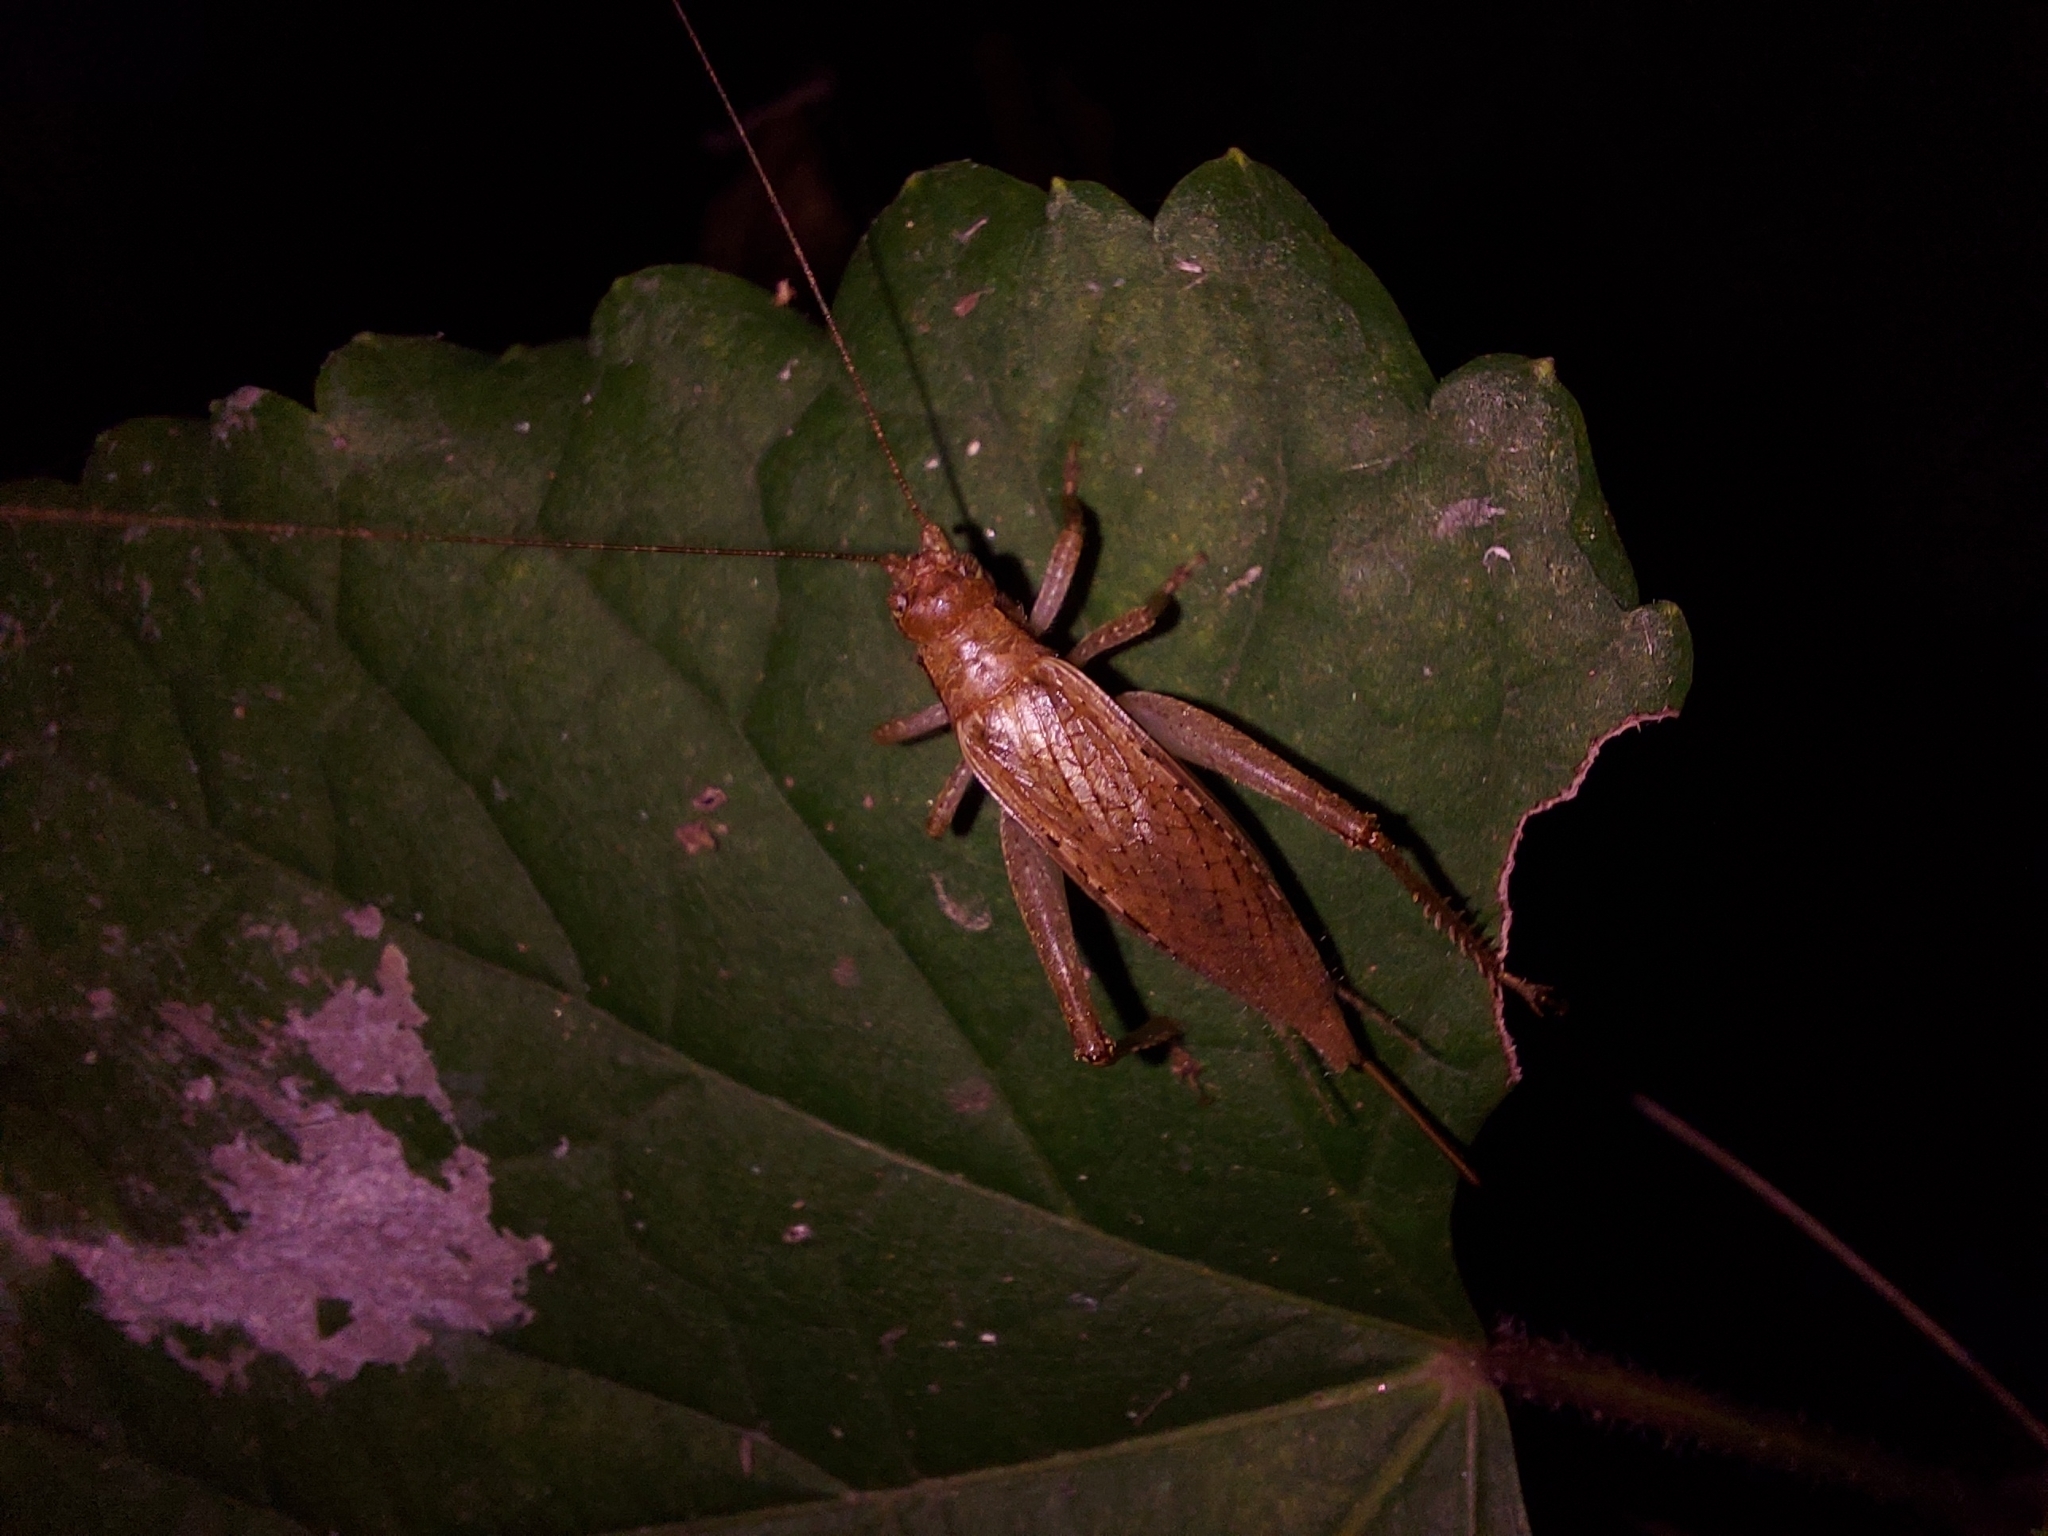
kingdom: Animalia
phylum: Arthropoda
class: Insecta
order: Orthoptera
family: Gryllidae
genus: Hapithus
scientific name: Hapithus saltator
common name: Jumping bush cricket
